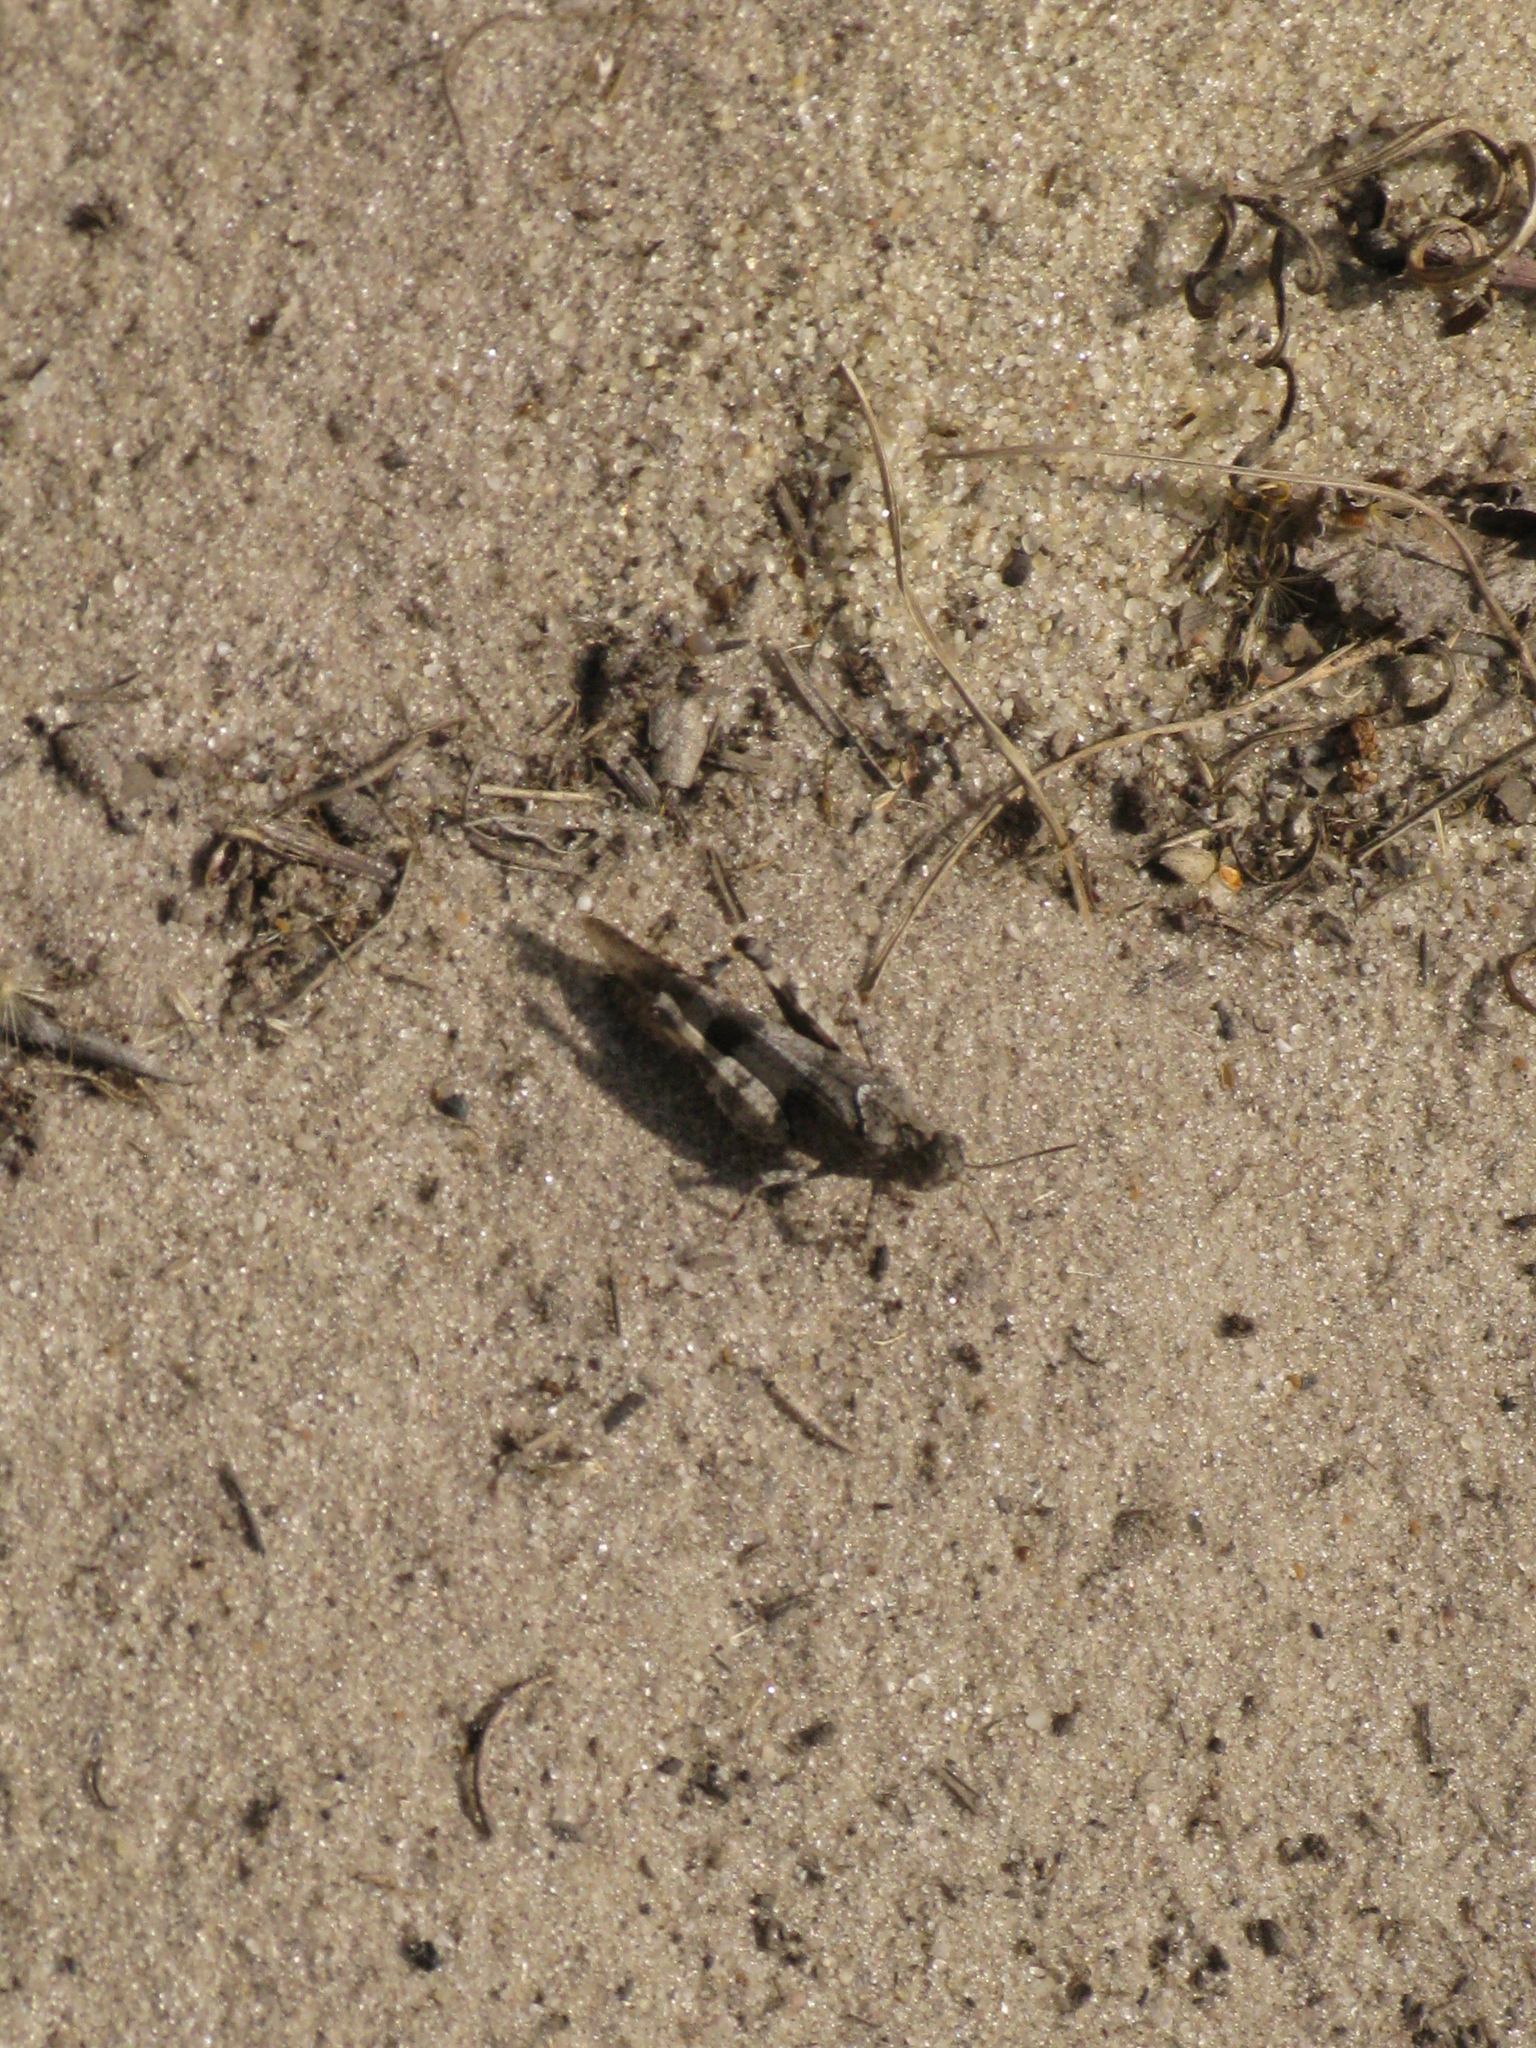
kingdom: Animalia
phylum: Arthropoda
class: Insecta
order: Orthoptera
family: Acrididae
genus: Oedipoda
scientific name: Oedipoda caerulescens
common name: Blue-winged grasshopper
